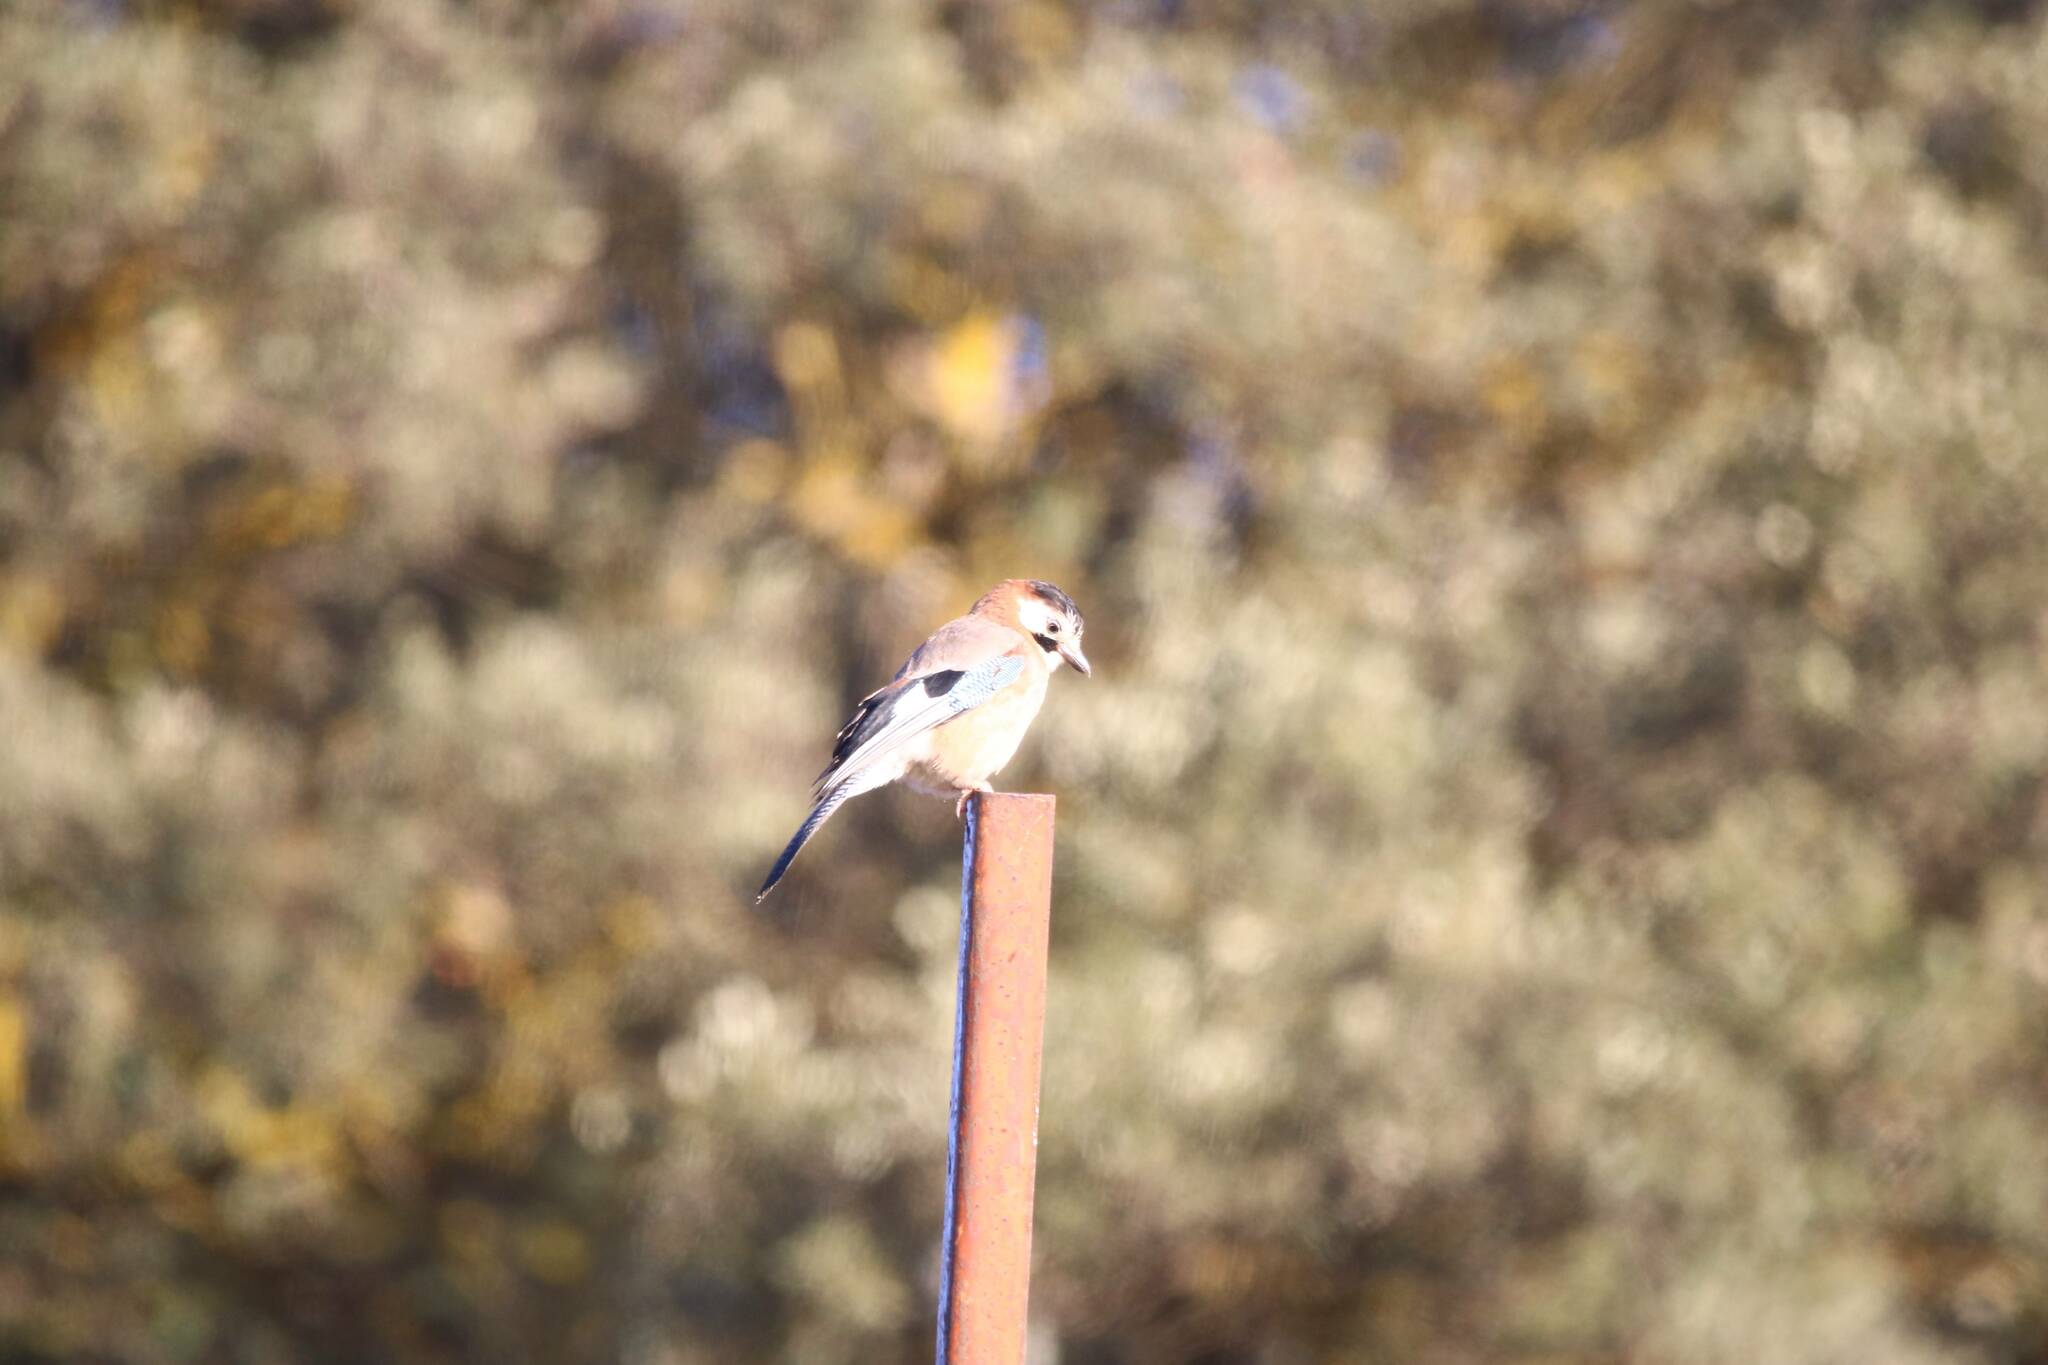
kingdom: Animalia
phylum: Chordata
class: Aves
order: Passeriformes
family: Corvidae
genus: Garrulus
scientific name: Garrulus glandarius
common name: Eurasian jay
